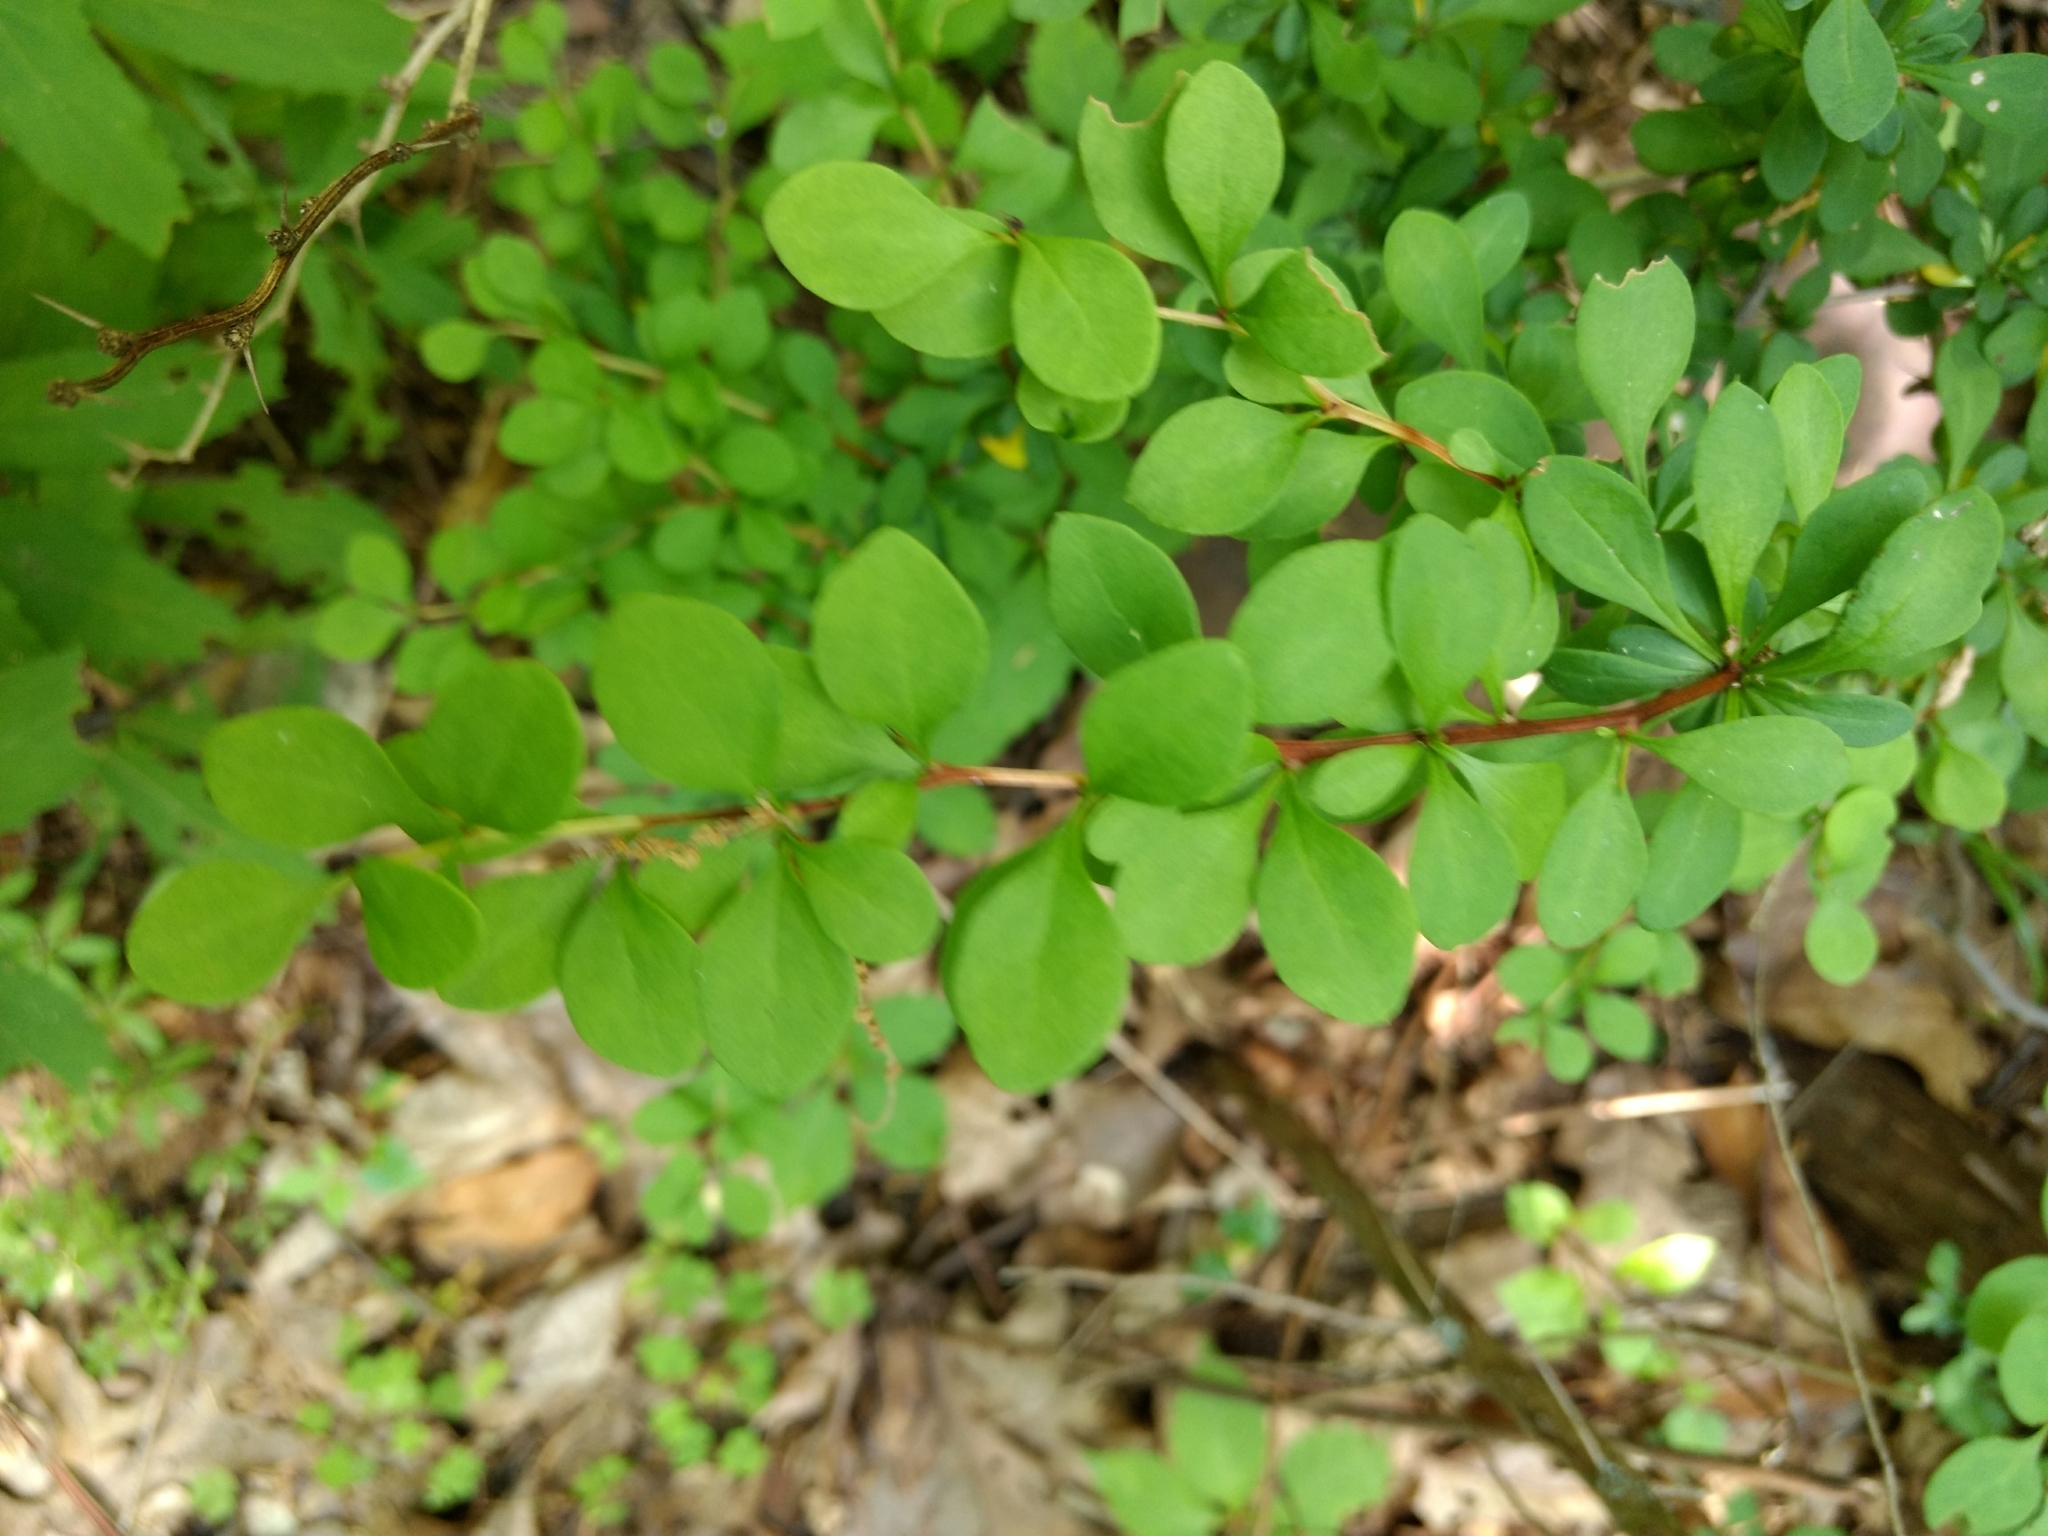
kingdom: Plantae
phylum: Tracheophyta
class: Magnoliopsida
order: Ranunculales
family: Berberidaceae
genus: Berberis
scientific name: Berberis thunbergii
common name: Japanese barberry
